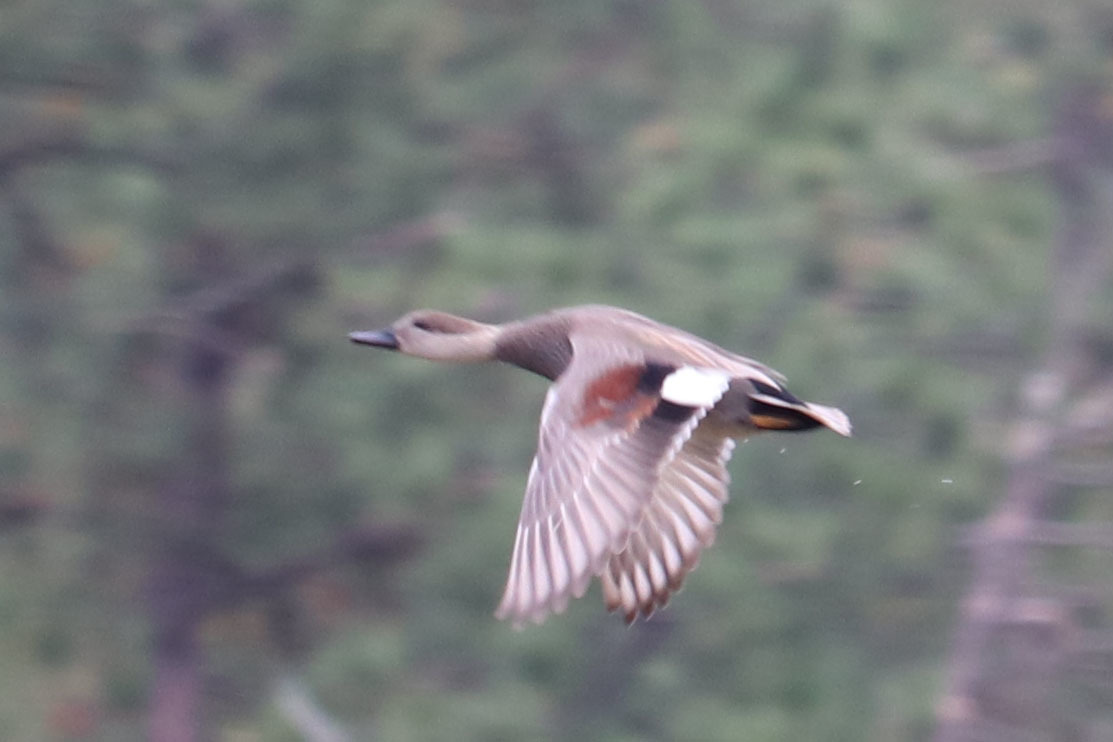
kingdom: Animalia
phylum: Chordata
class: Aves
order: Anseriformes
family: Anatidae
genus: Mareca
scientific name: Mareca strepera
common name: Gadwall
